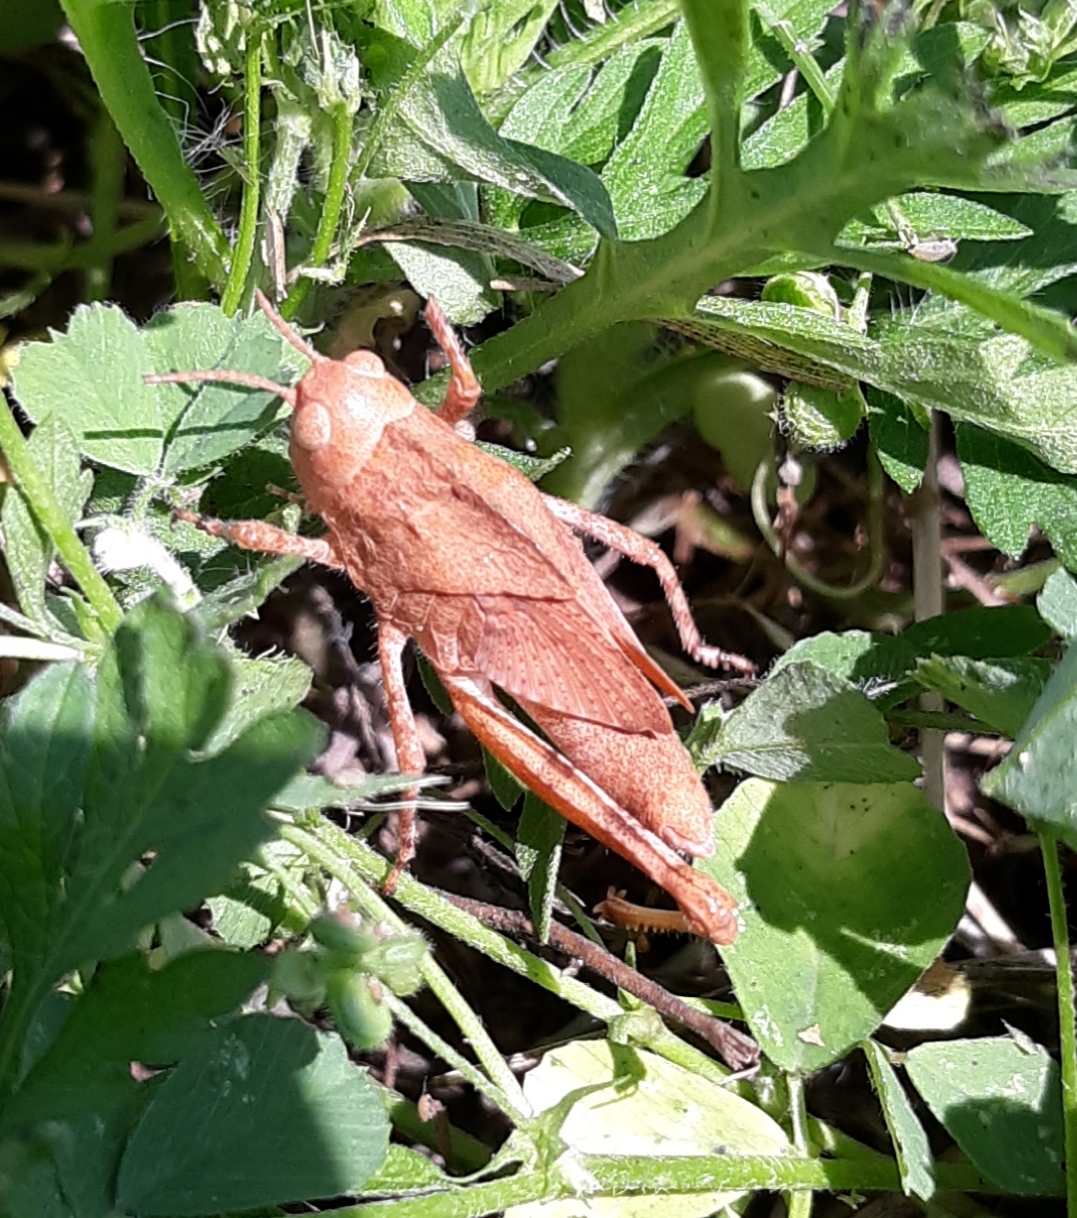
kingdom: Animalia
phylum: Arthropoda
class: Insecta
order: Orthoptera
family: Acrididae
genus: Dissosteira
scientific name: Dissosteira carolina
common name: Carolina grasshopper
